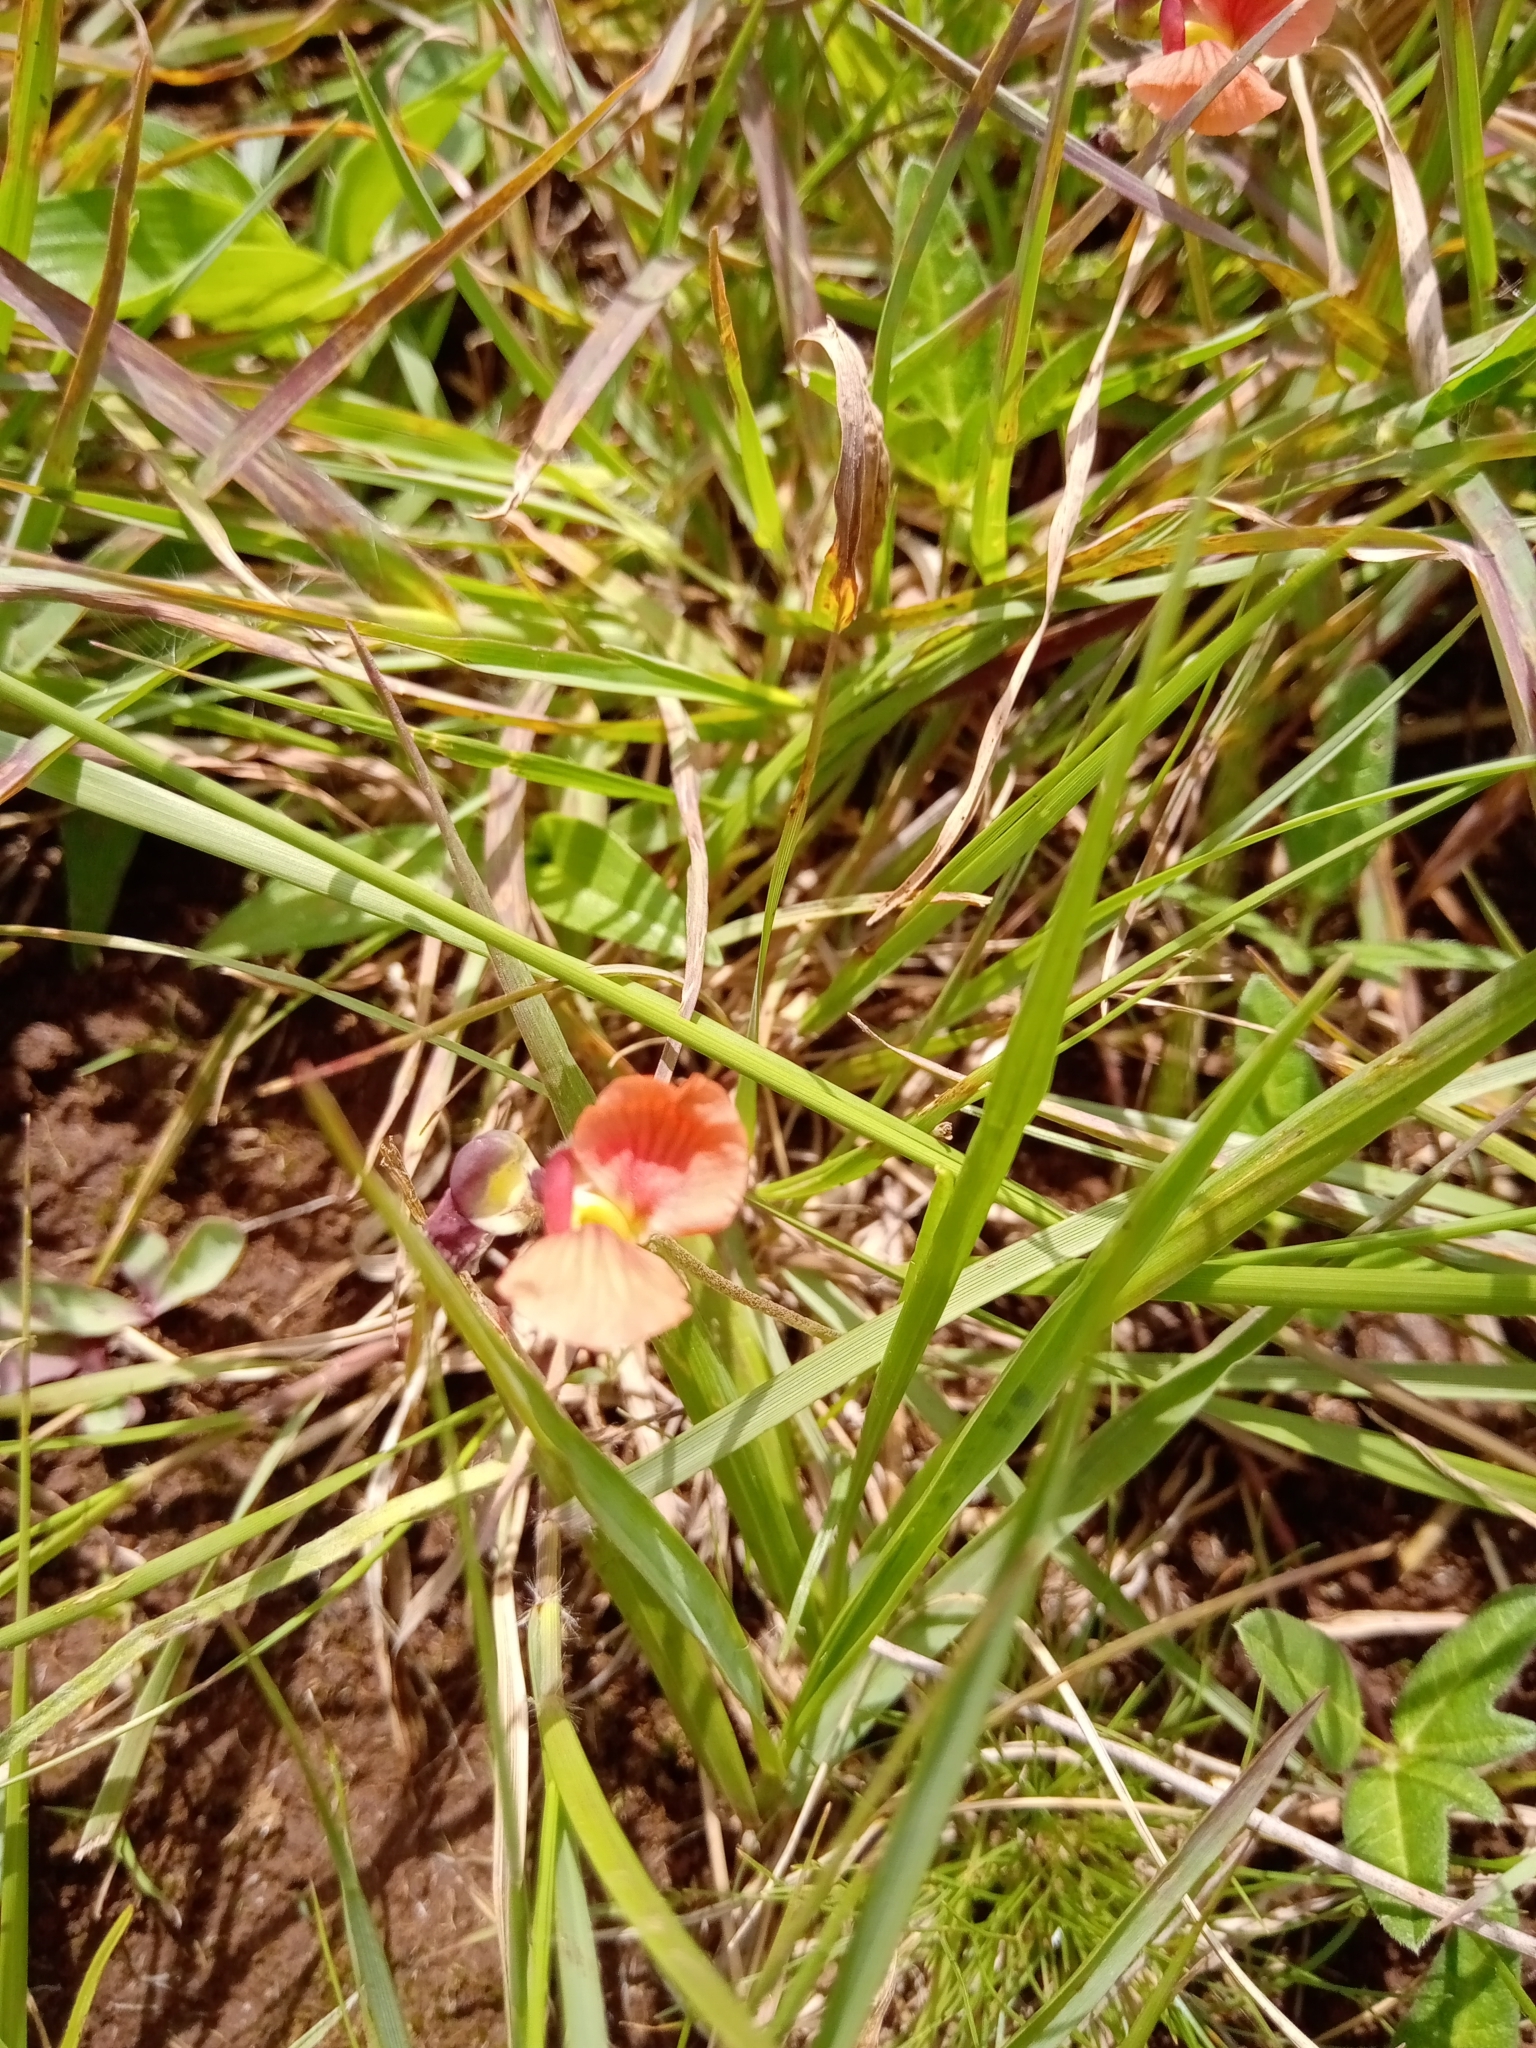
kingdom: Plantae
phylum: Tracheophyta
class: Magnoliopsida
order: Fabales
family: Fabaceae
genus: Macroptilium
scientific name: Macroptilium gibbosifolium
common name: Variableleaf bushbean
